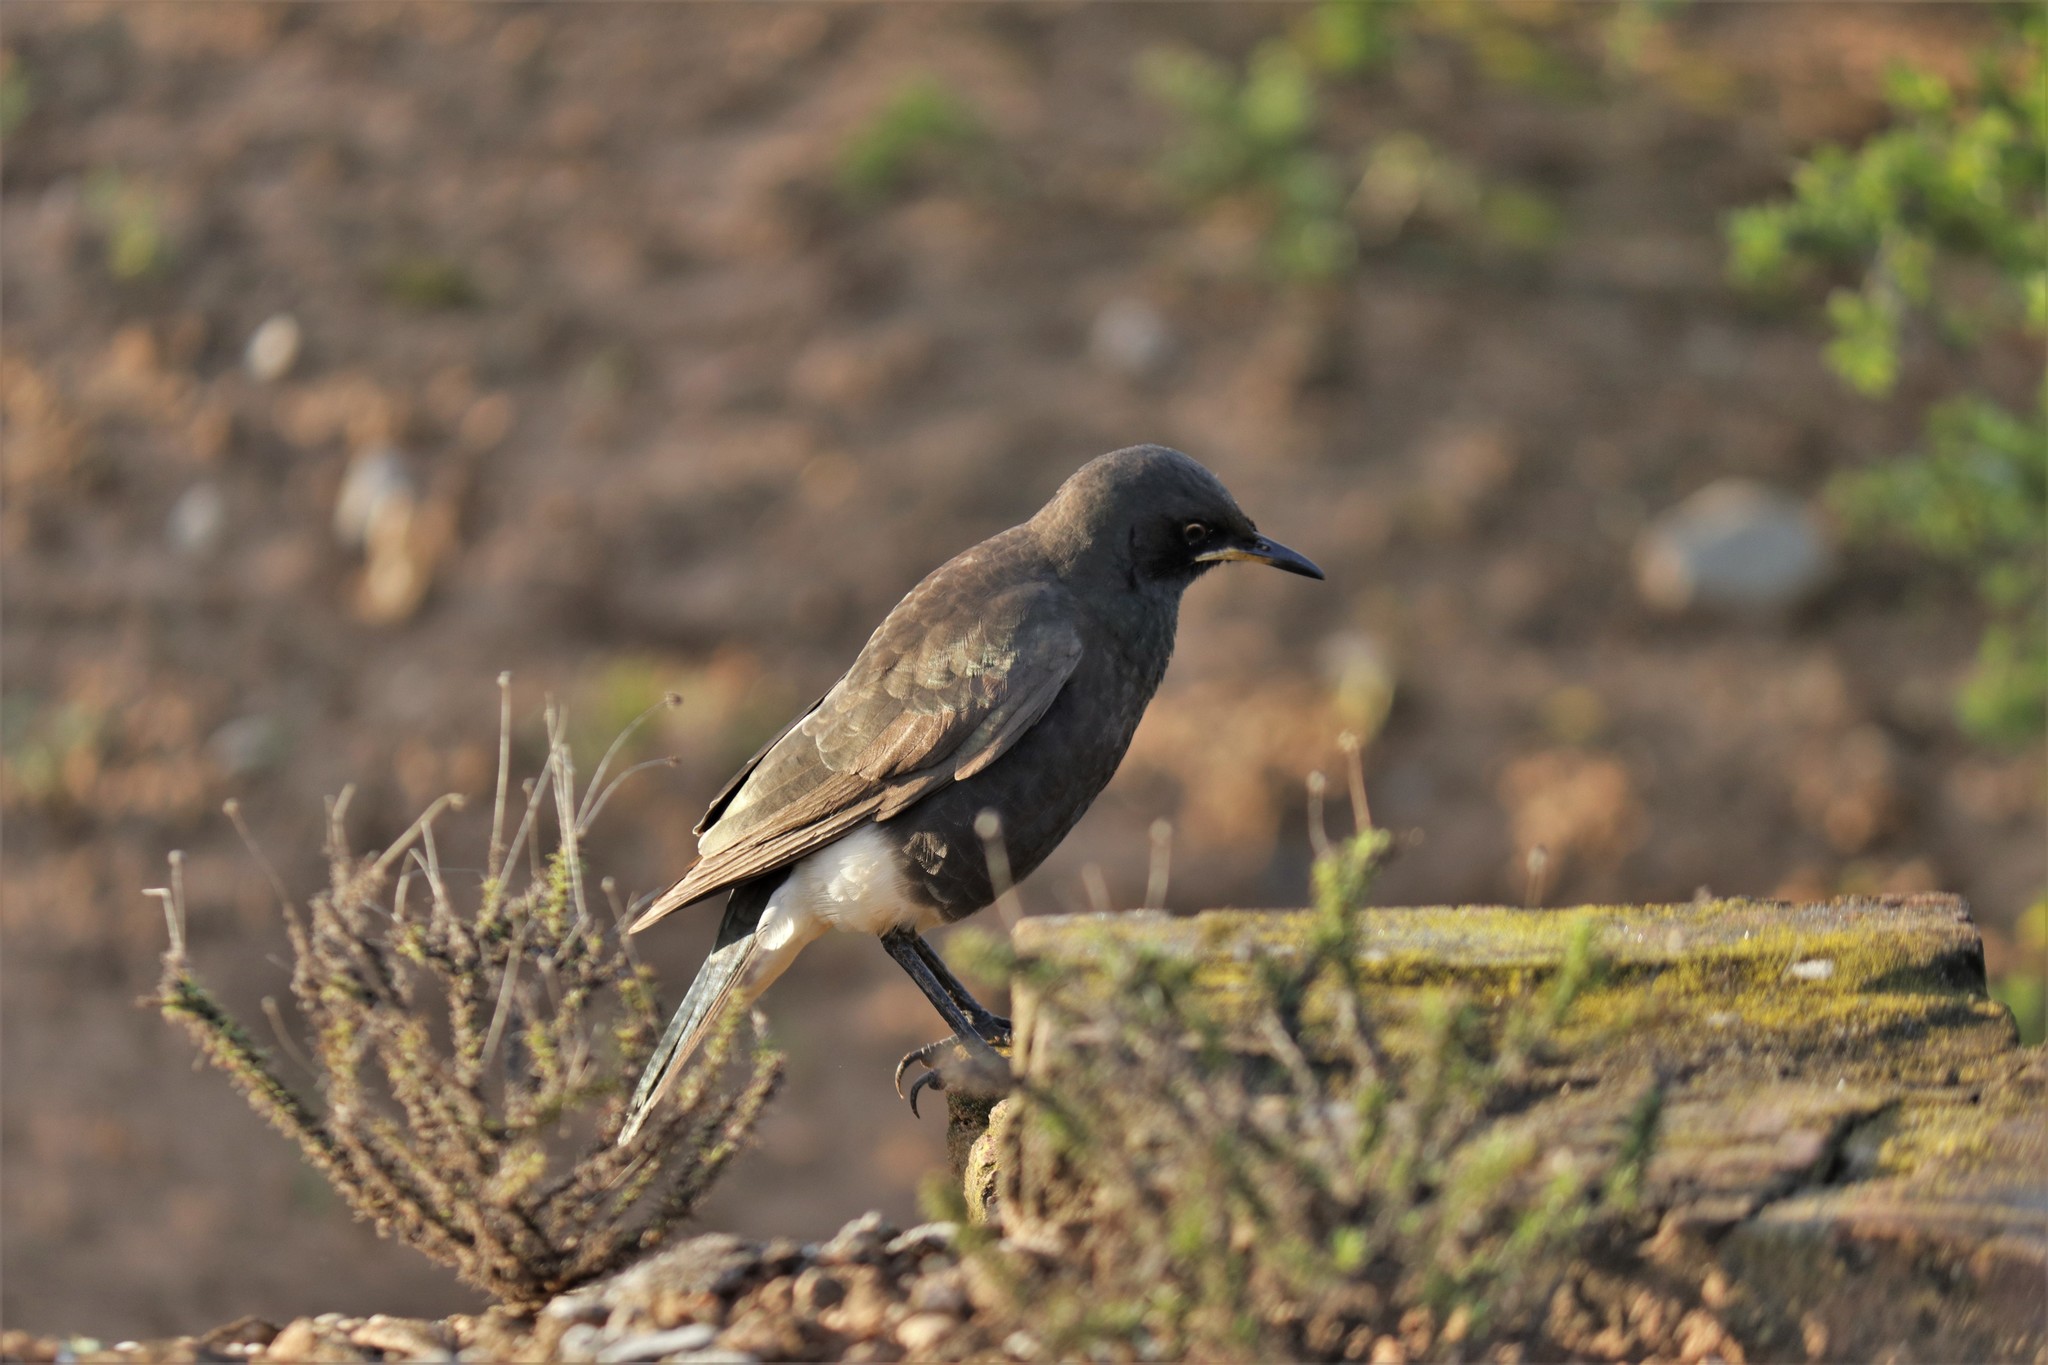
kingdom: Animalia
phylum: Chordata
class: Aves
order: Passeriformes
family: Sturnidae
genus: Lamprotornis
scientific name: Lamprotornis bicolor
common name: Pied starling
